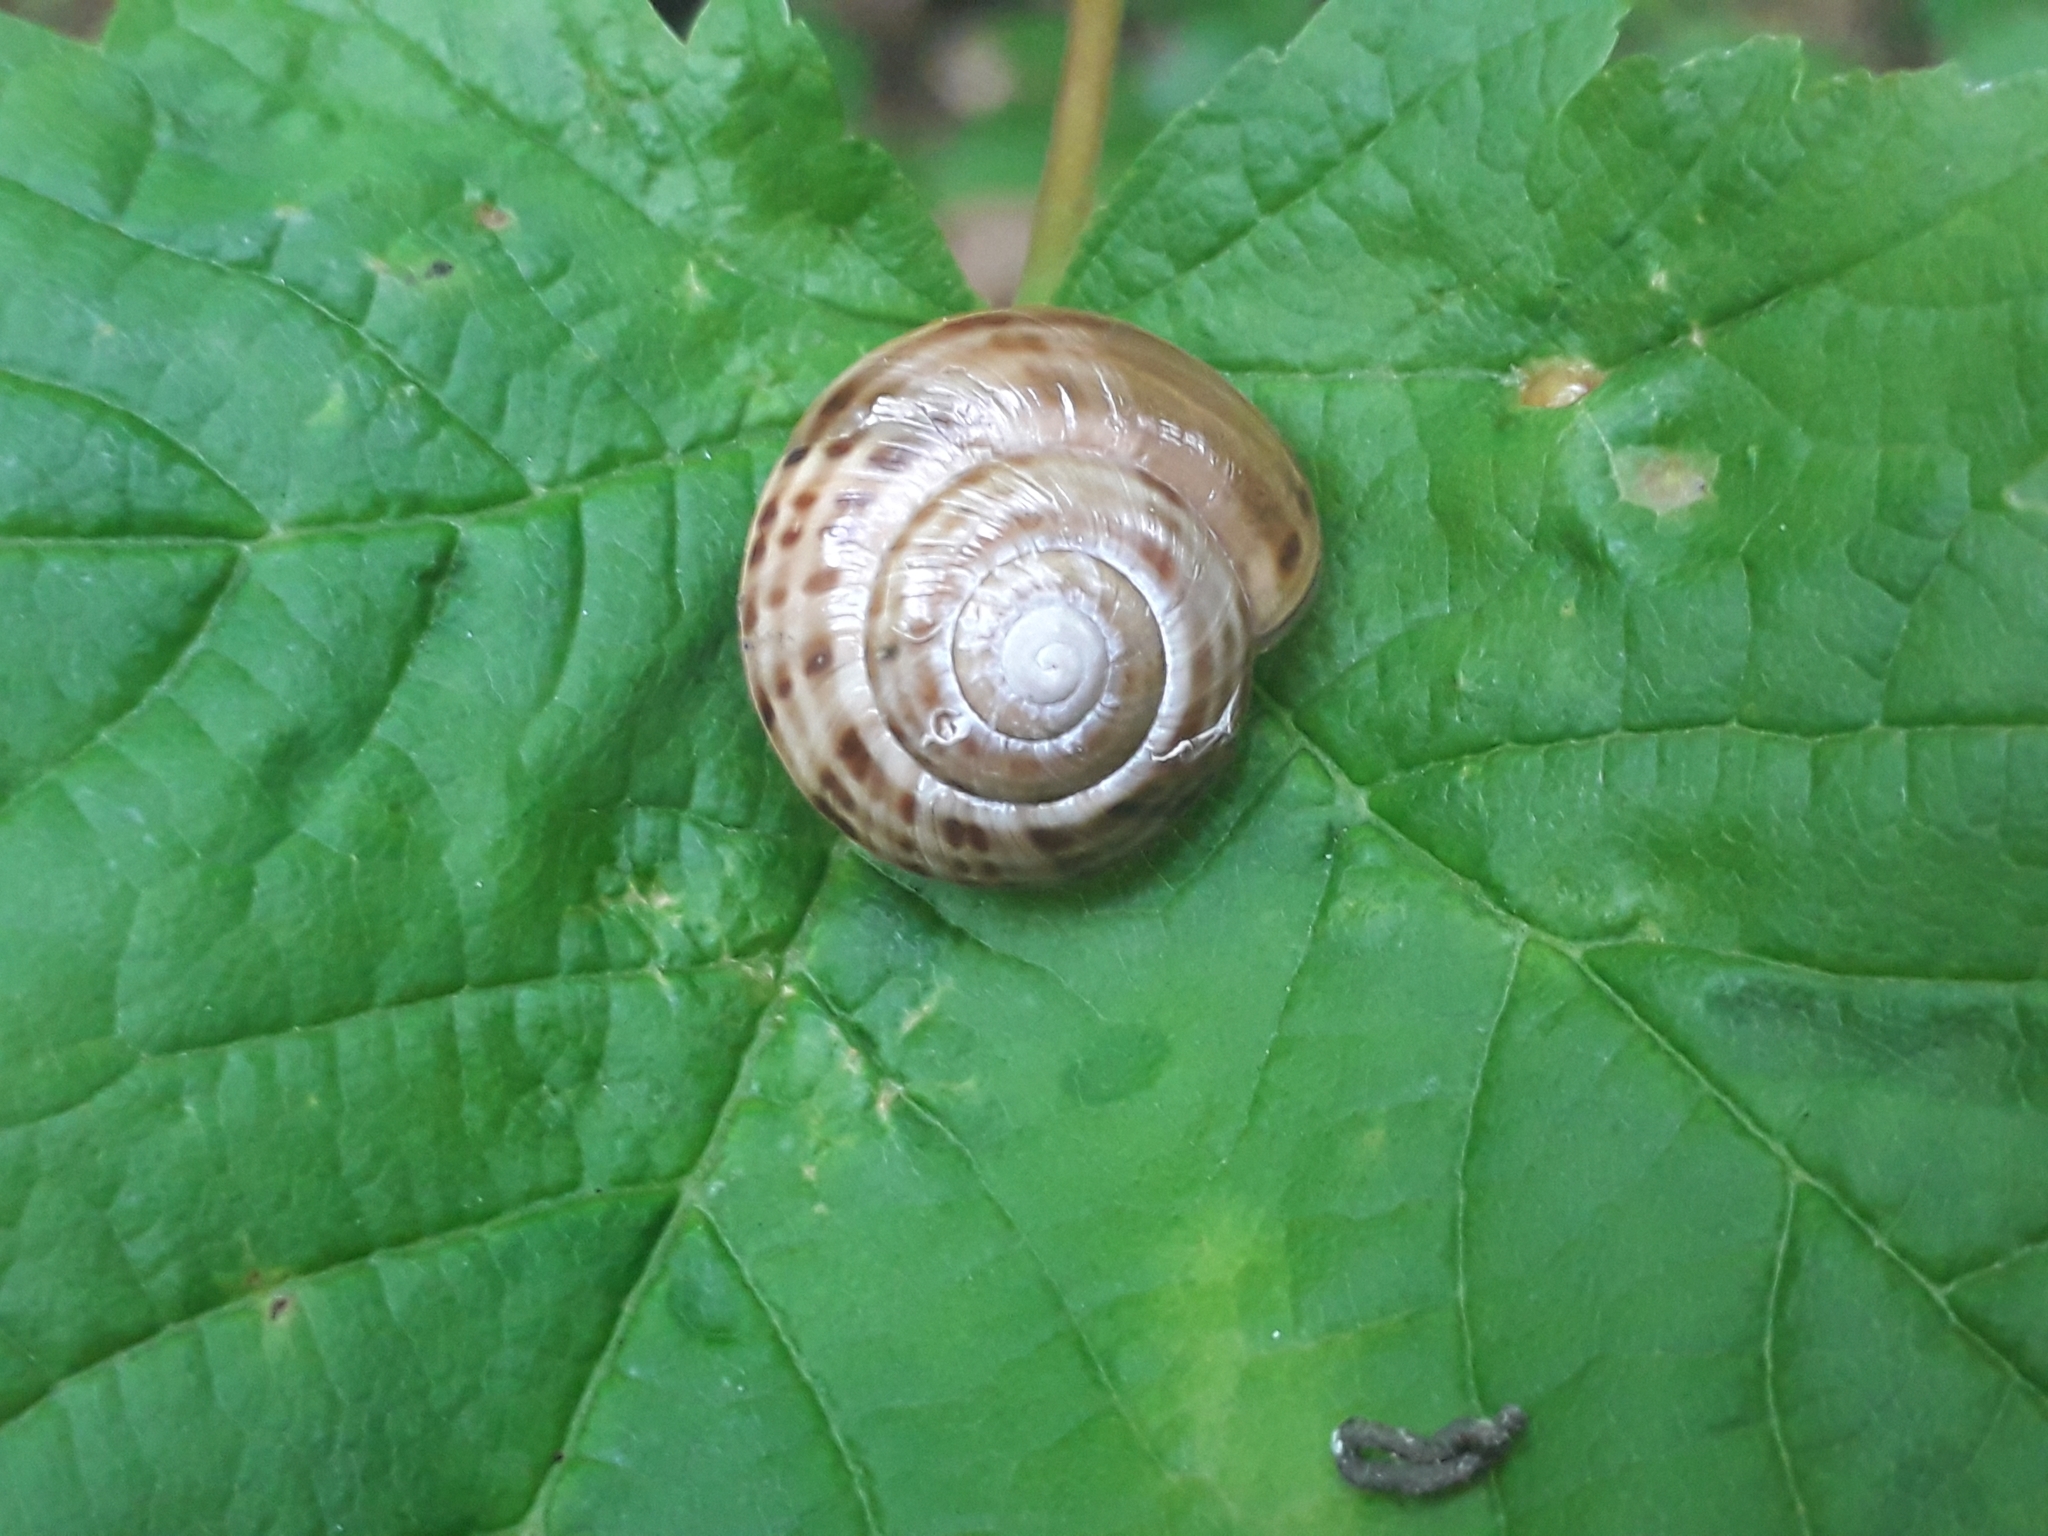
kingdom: Animalia
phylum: Mollusca
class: Gastropoda
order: Stylommatophora
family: Helicidae
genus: Macularia
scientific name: Macularia sylvatica
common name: Hélice sylvatique
